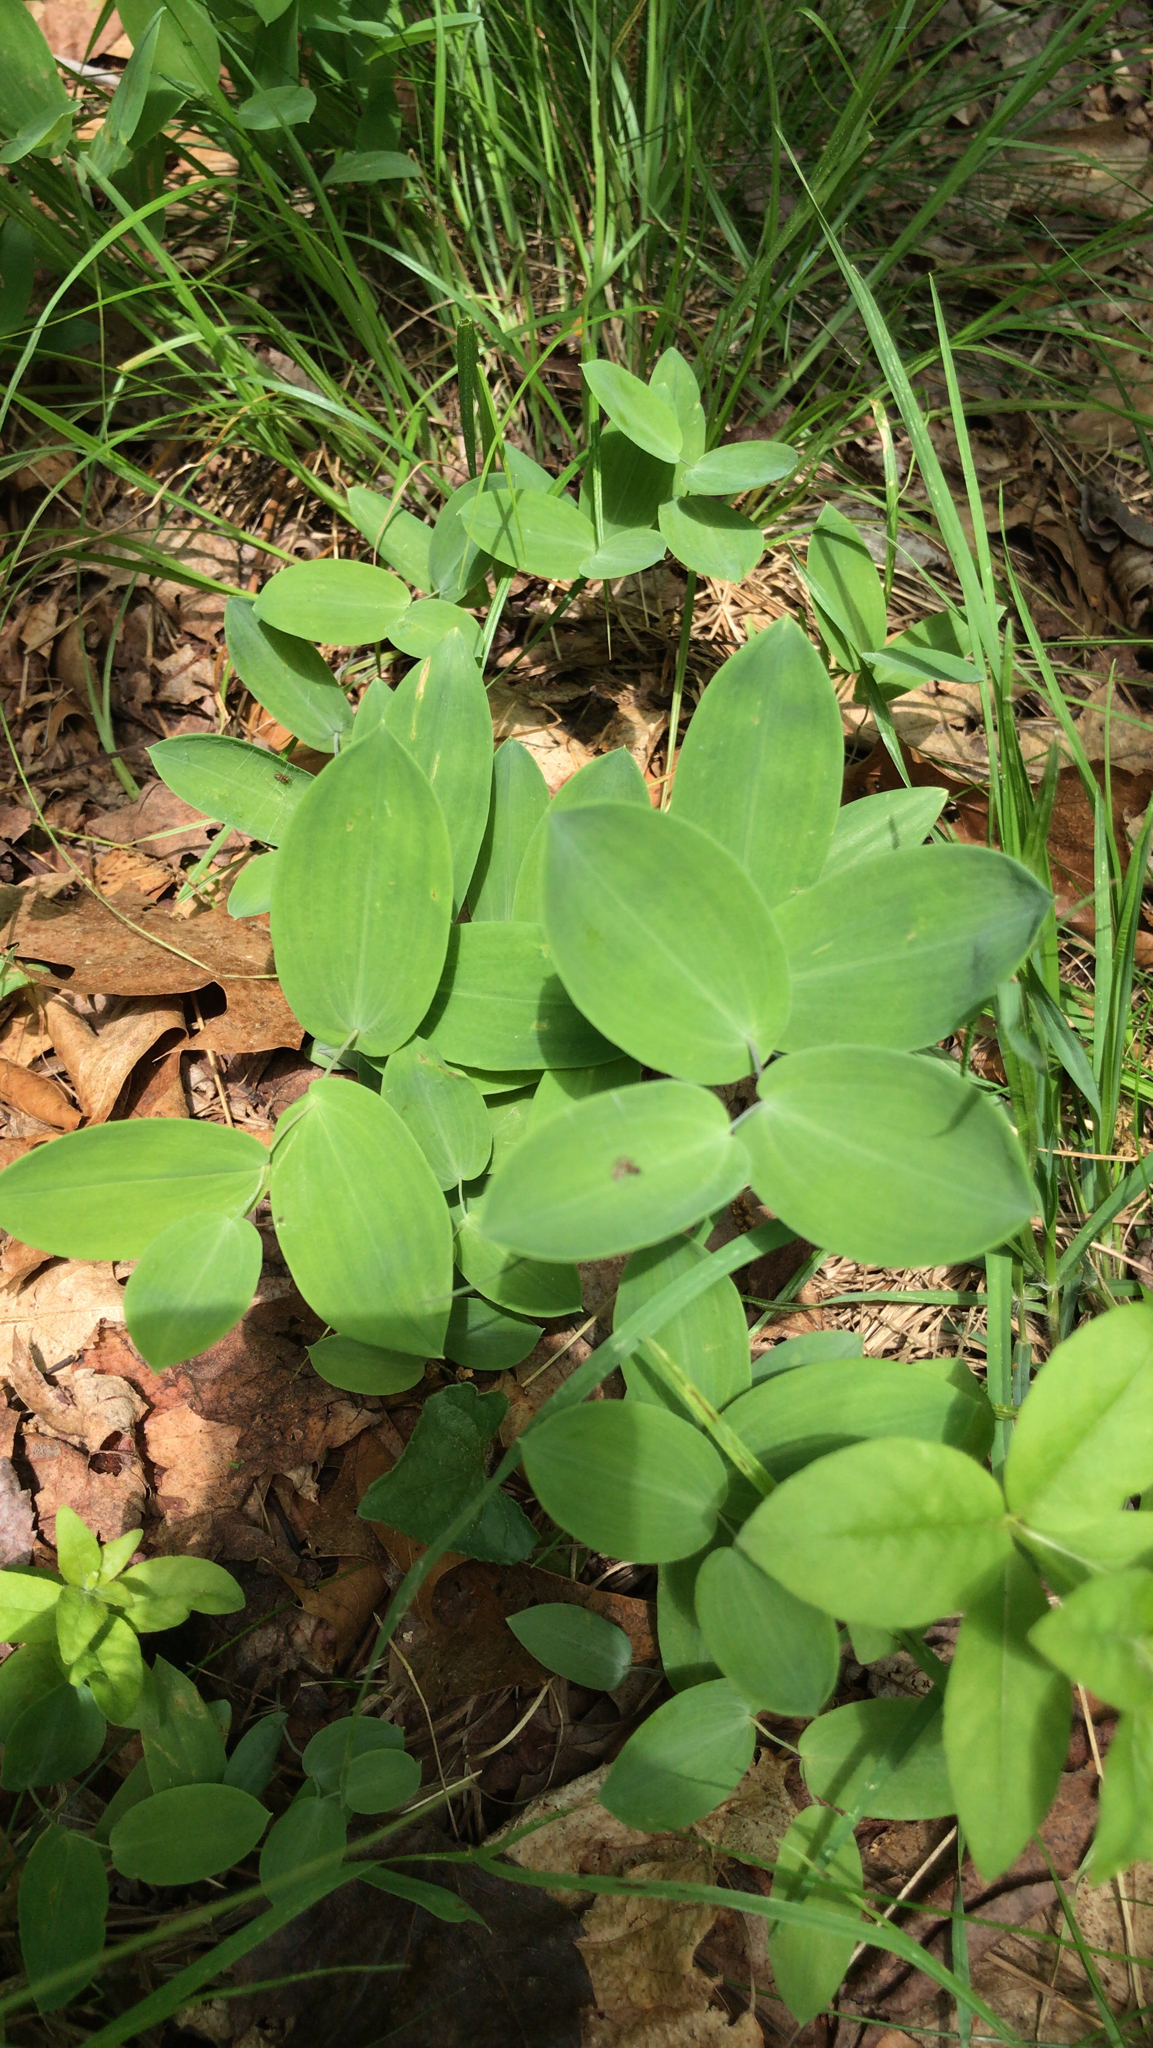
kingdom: Plantae
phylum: Tracheophyta
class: Liliopsida
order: Liliales
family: Colchicaceae
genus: Uvularia
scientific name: Uvularia perfoliata
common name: Perfoliate bellwort
